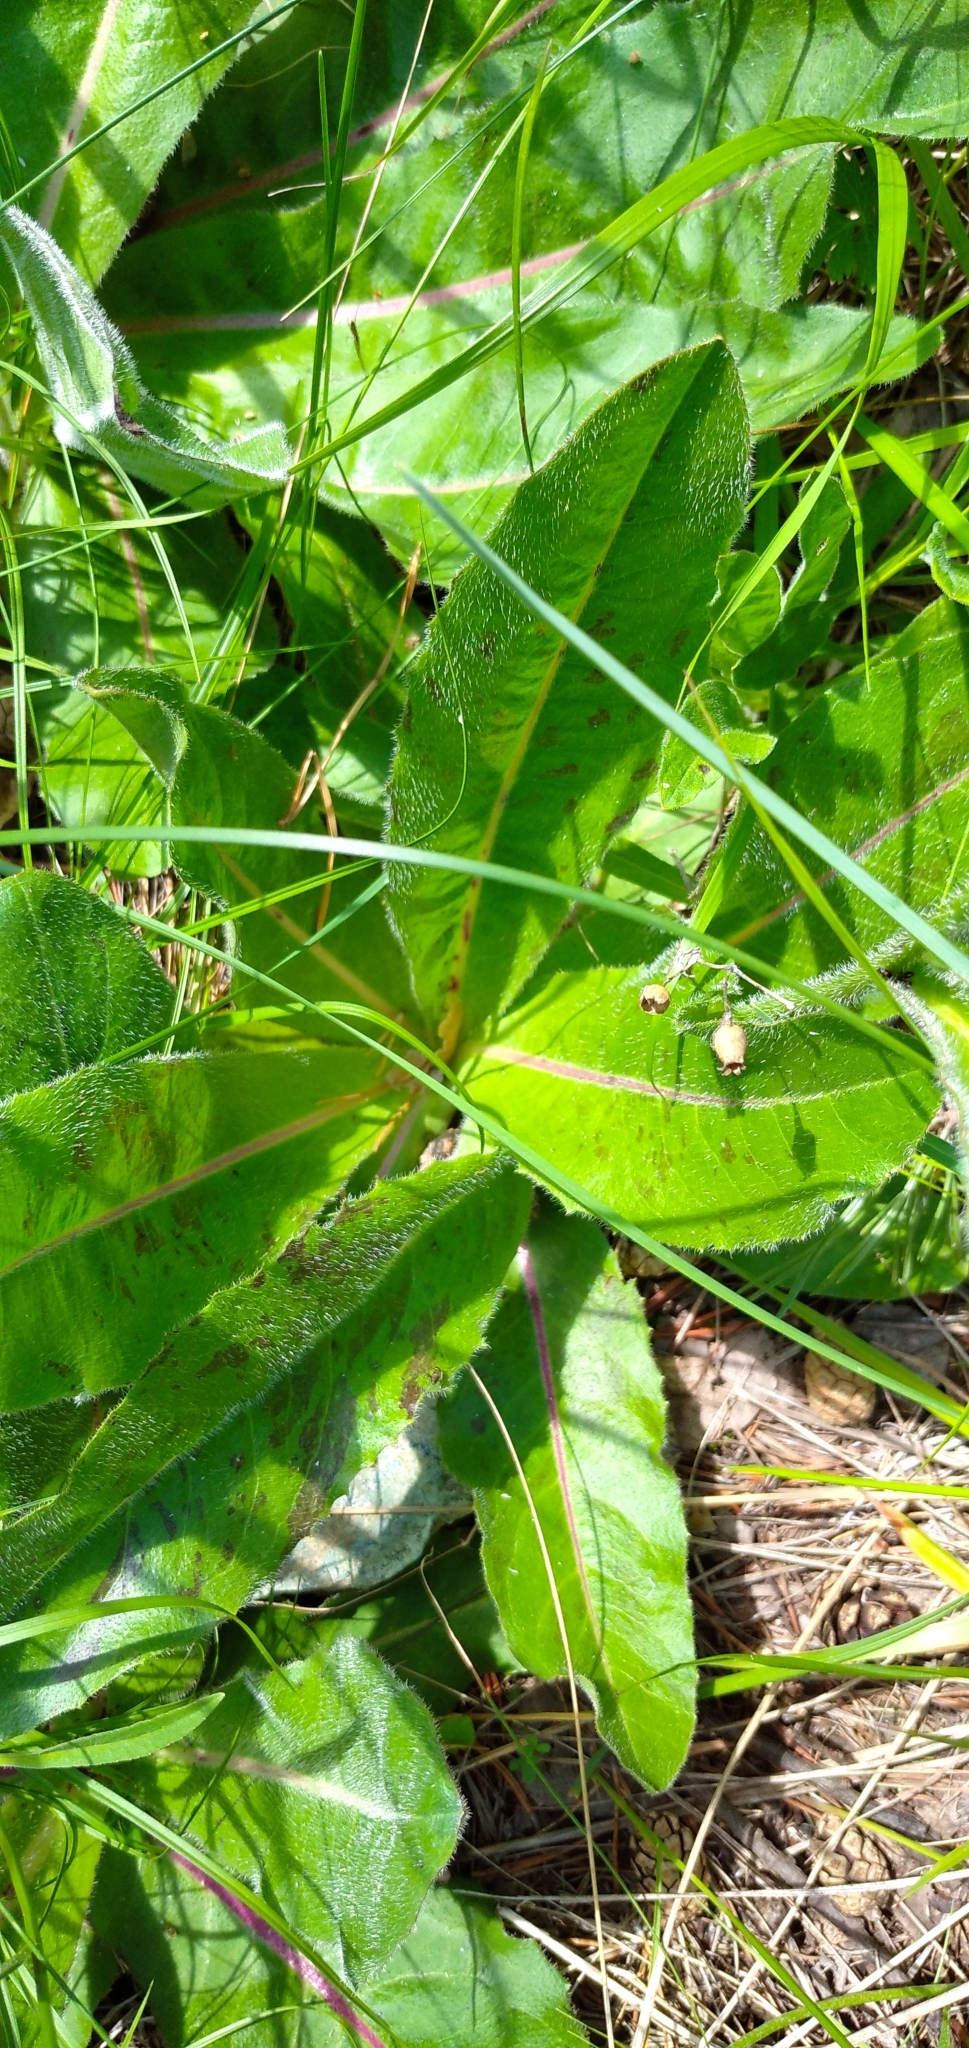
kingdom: Plantae
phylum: Tracheophyta
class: Magnoliopsida
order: Asterales
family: Asteraceae
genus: Trommsdorffia
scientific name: Trommsdorffia maculata
